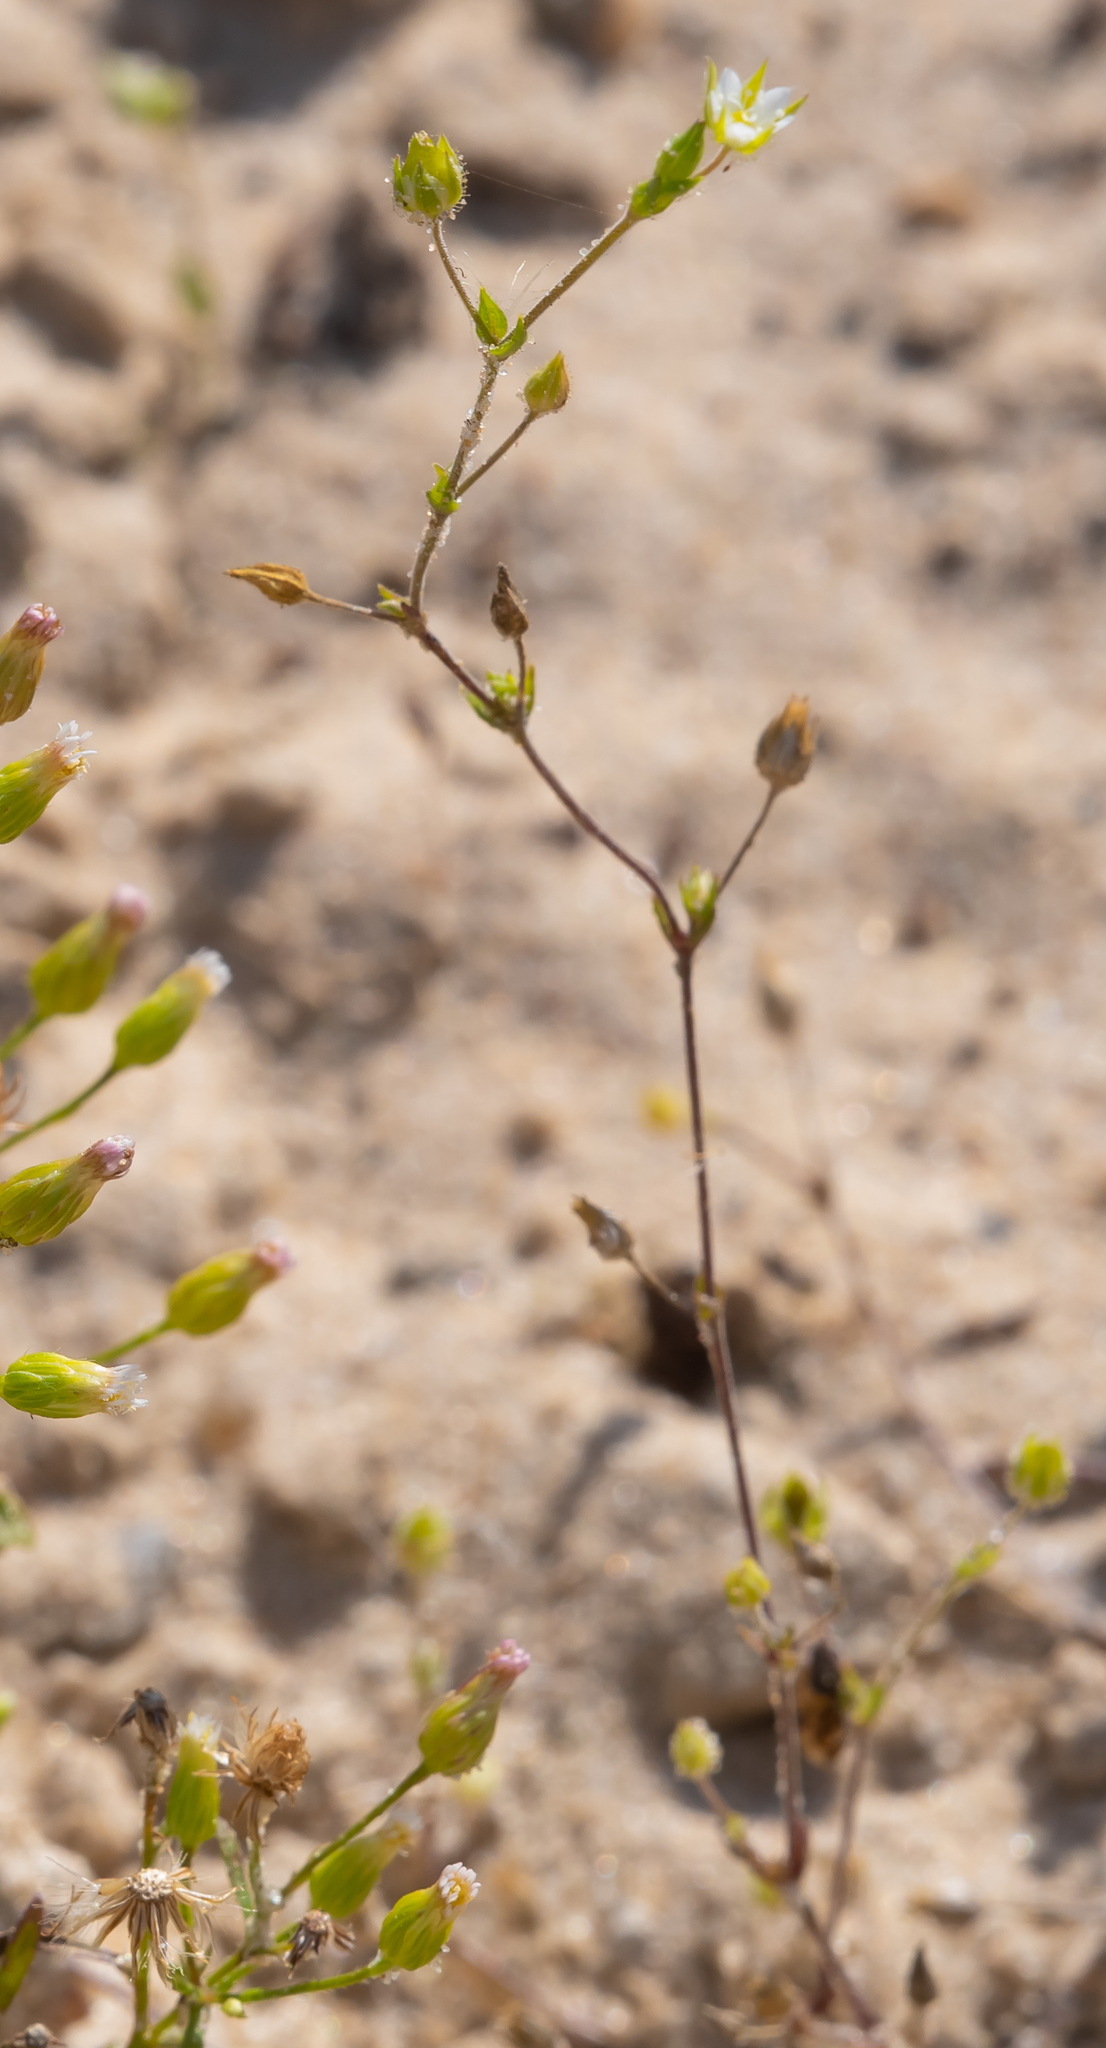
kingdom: Plantae
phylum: Tracheophyta
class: Magnoliopsida
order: Caryophyllales
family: Caryophyllaceae
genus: Arenaria
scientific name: Arenaria serpyllifolia
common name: Thyme-leaved sandwort
